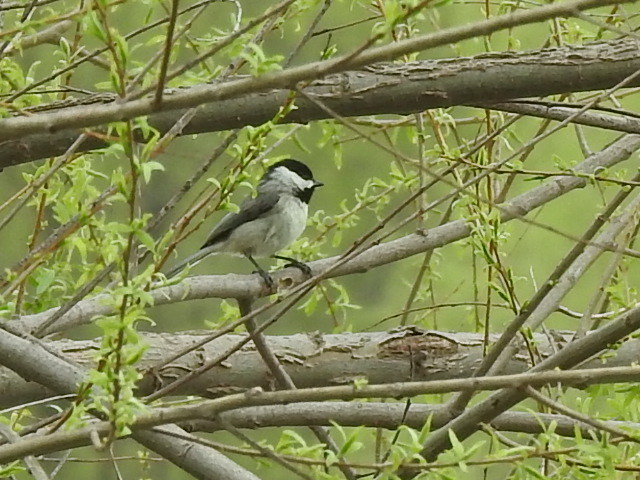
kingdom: Animalia
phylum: Chordata
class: Aves
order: Passeriformes
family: Paridae
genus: Poecile
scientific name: Poecile carolinensis
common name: Carolina chickadee
